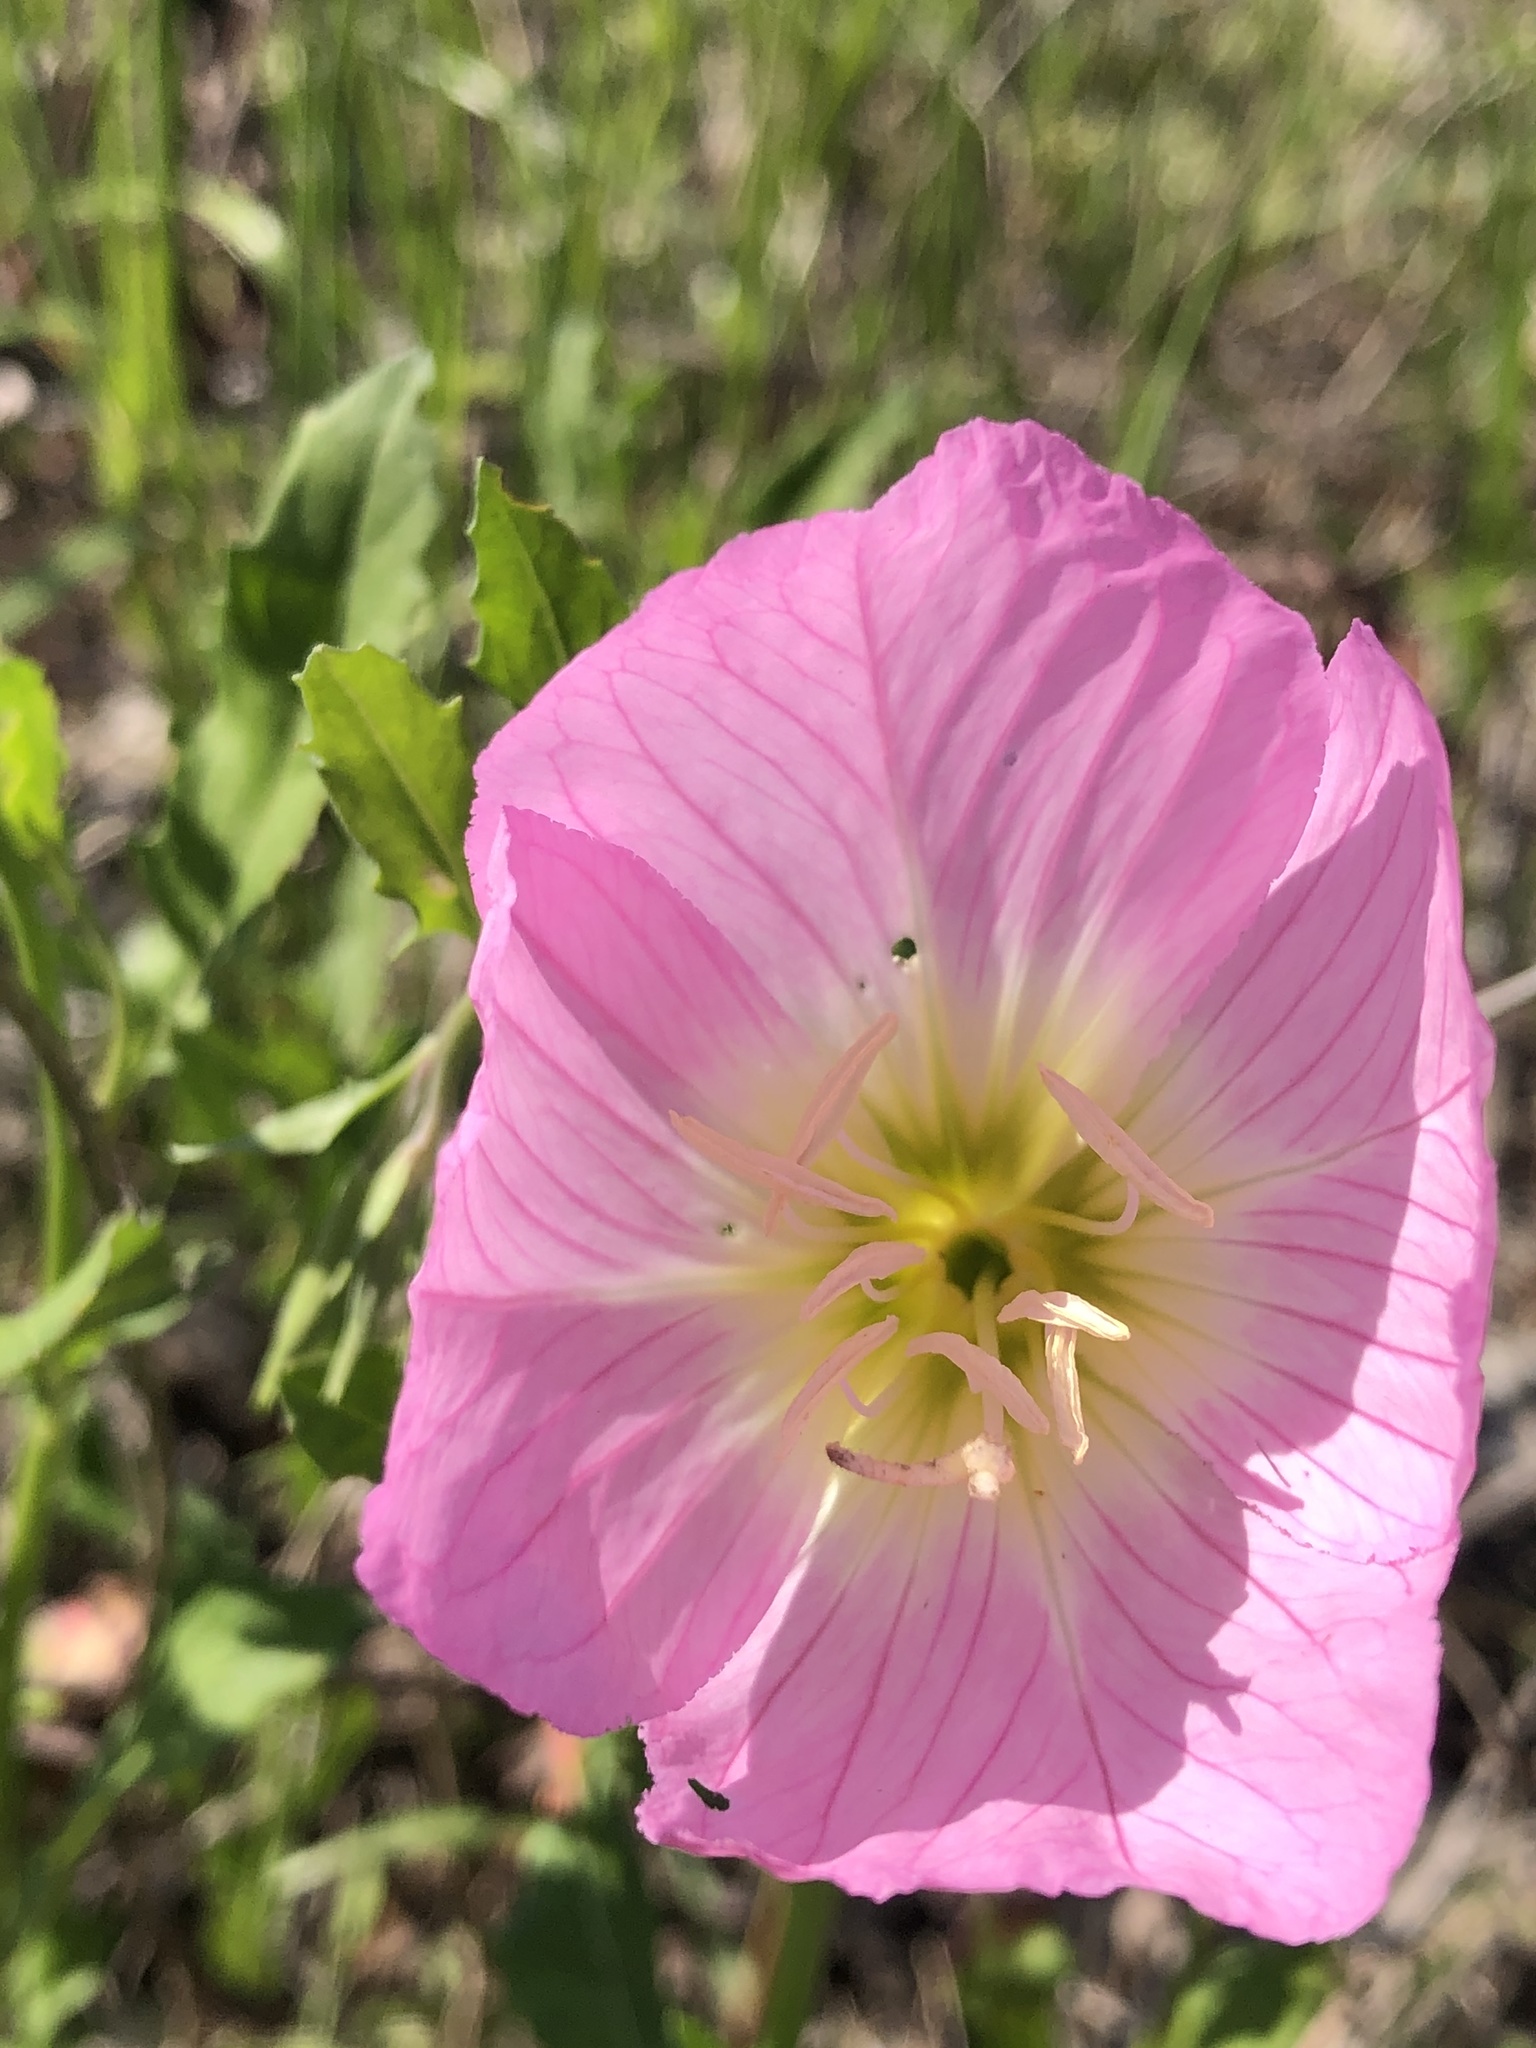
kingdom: Plantae
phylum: Tracheophyta
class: Magnoliopsida
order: Myrtales
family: Onagraceae
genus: Oenothera
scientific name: Oenothera speciosa
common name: White evening-primrose
